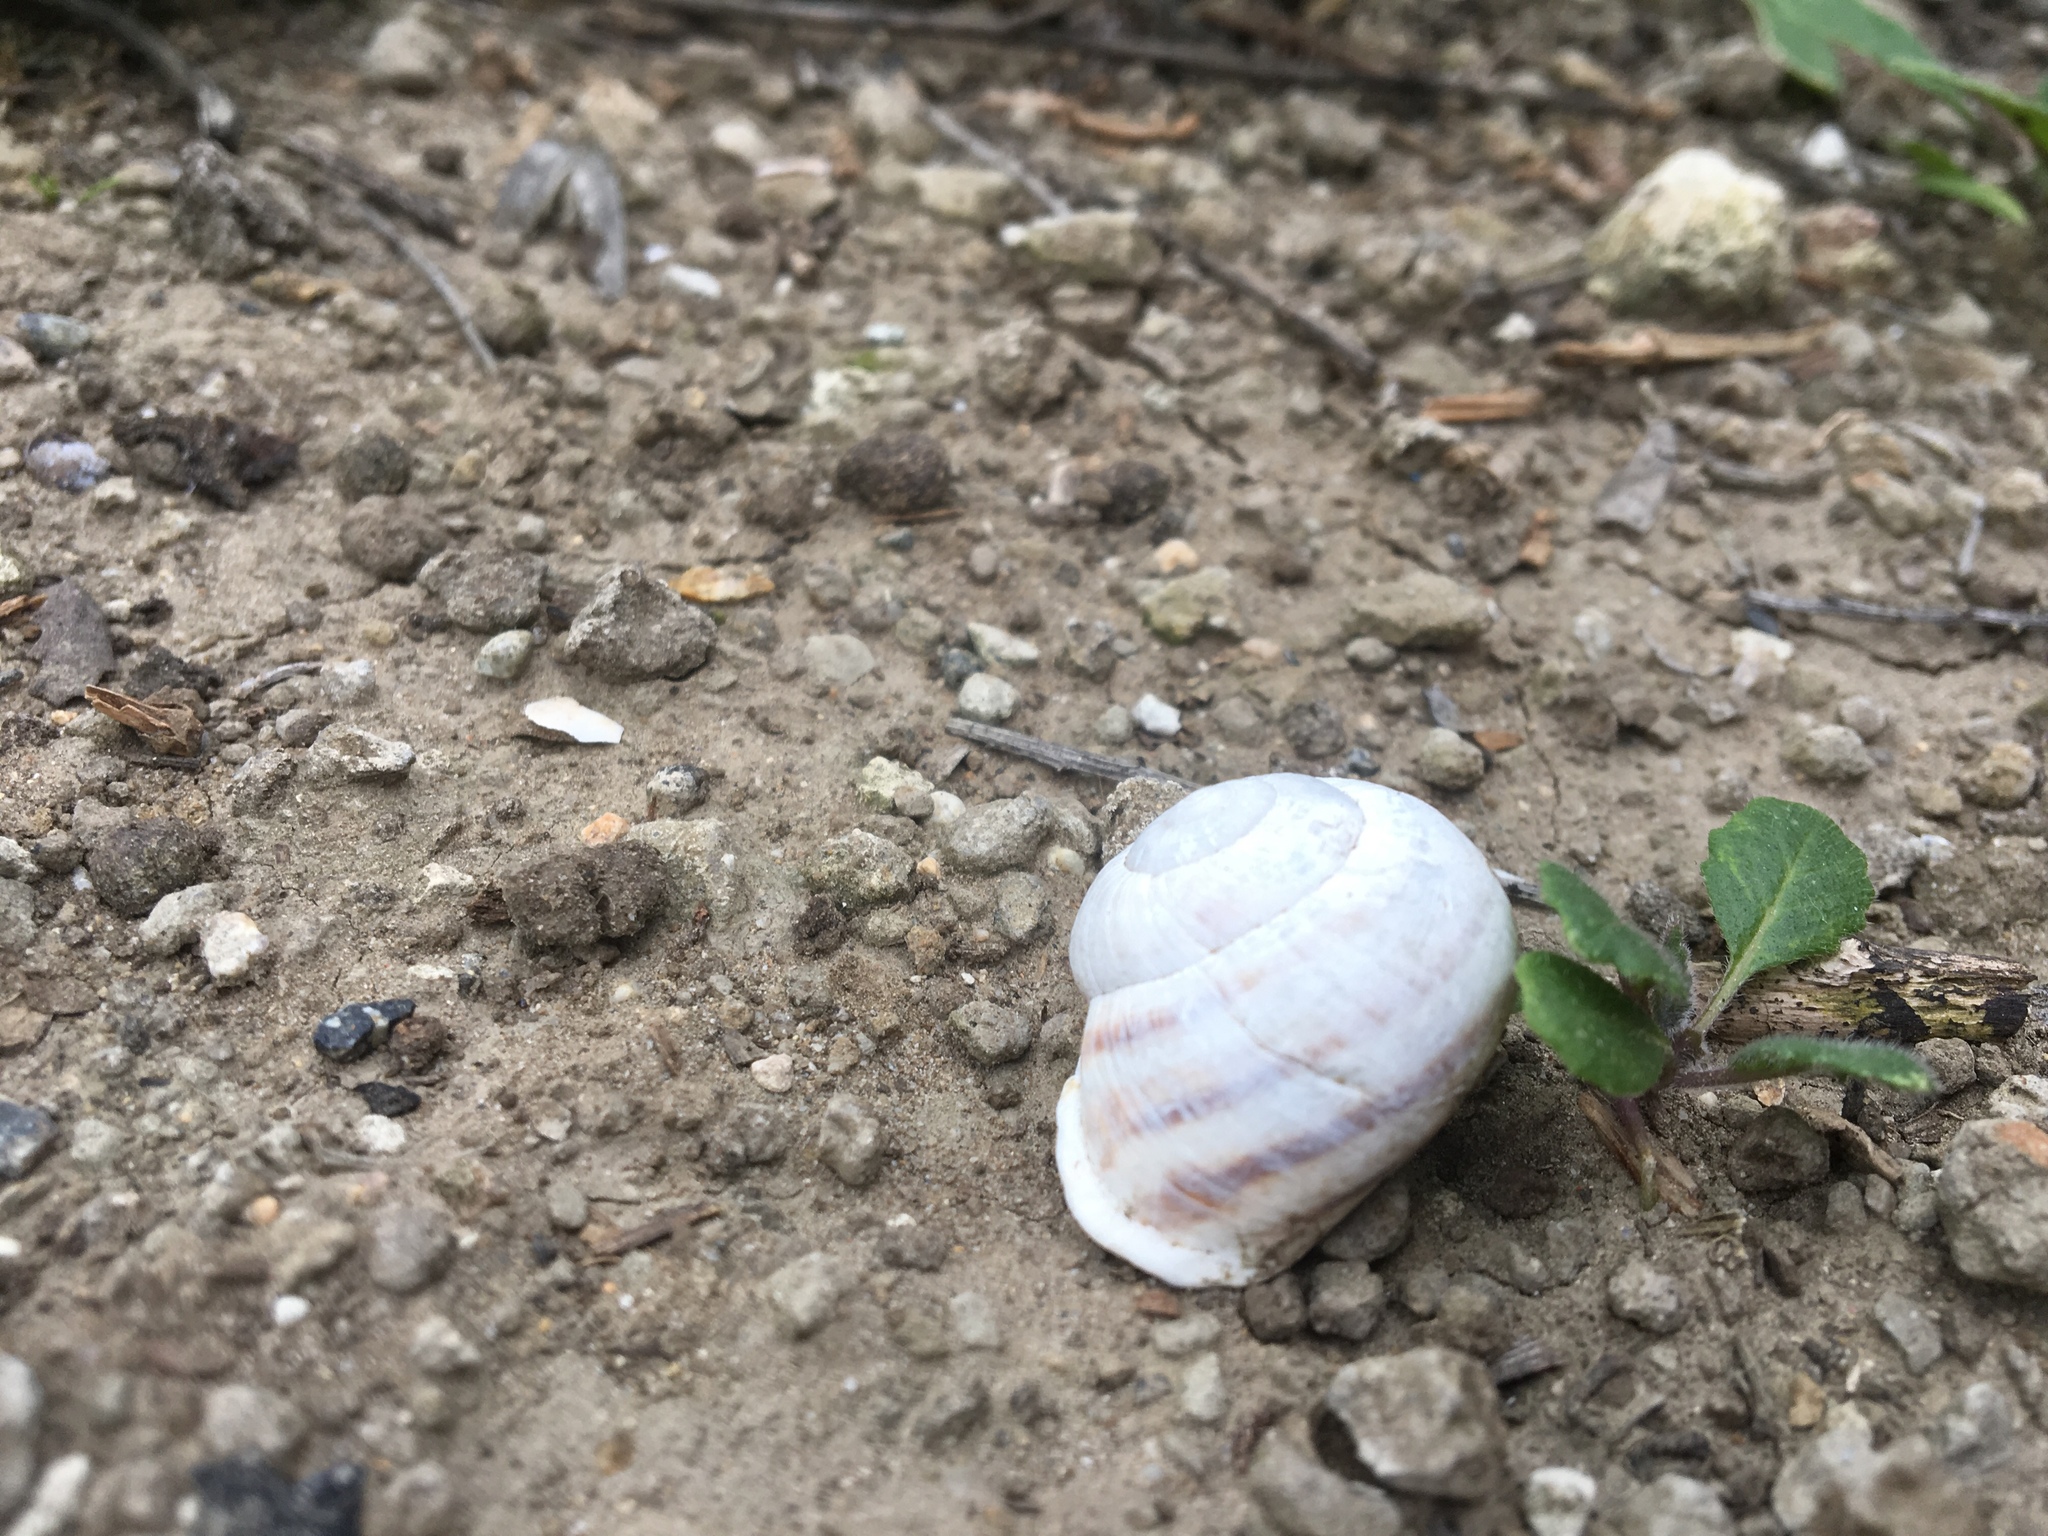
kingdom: Animalia
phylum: Mollusca
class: Gastropoda
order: Stylommatophora
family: Helicidae
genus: Otala
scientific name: Otala lactea
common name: Milk snail
